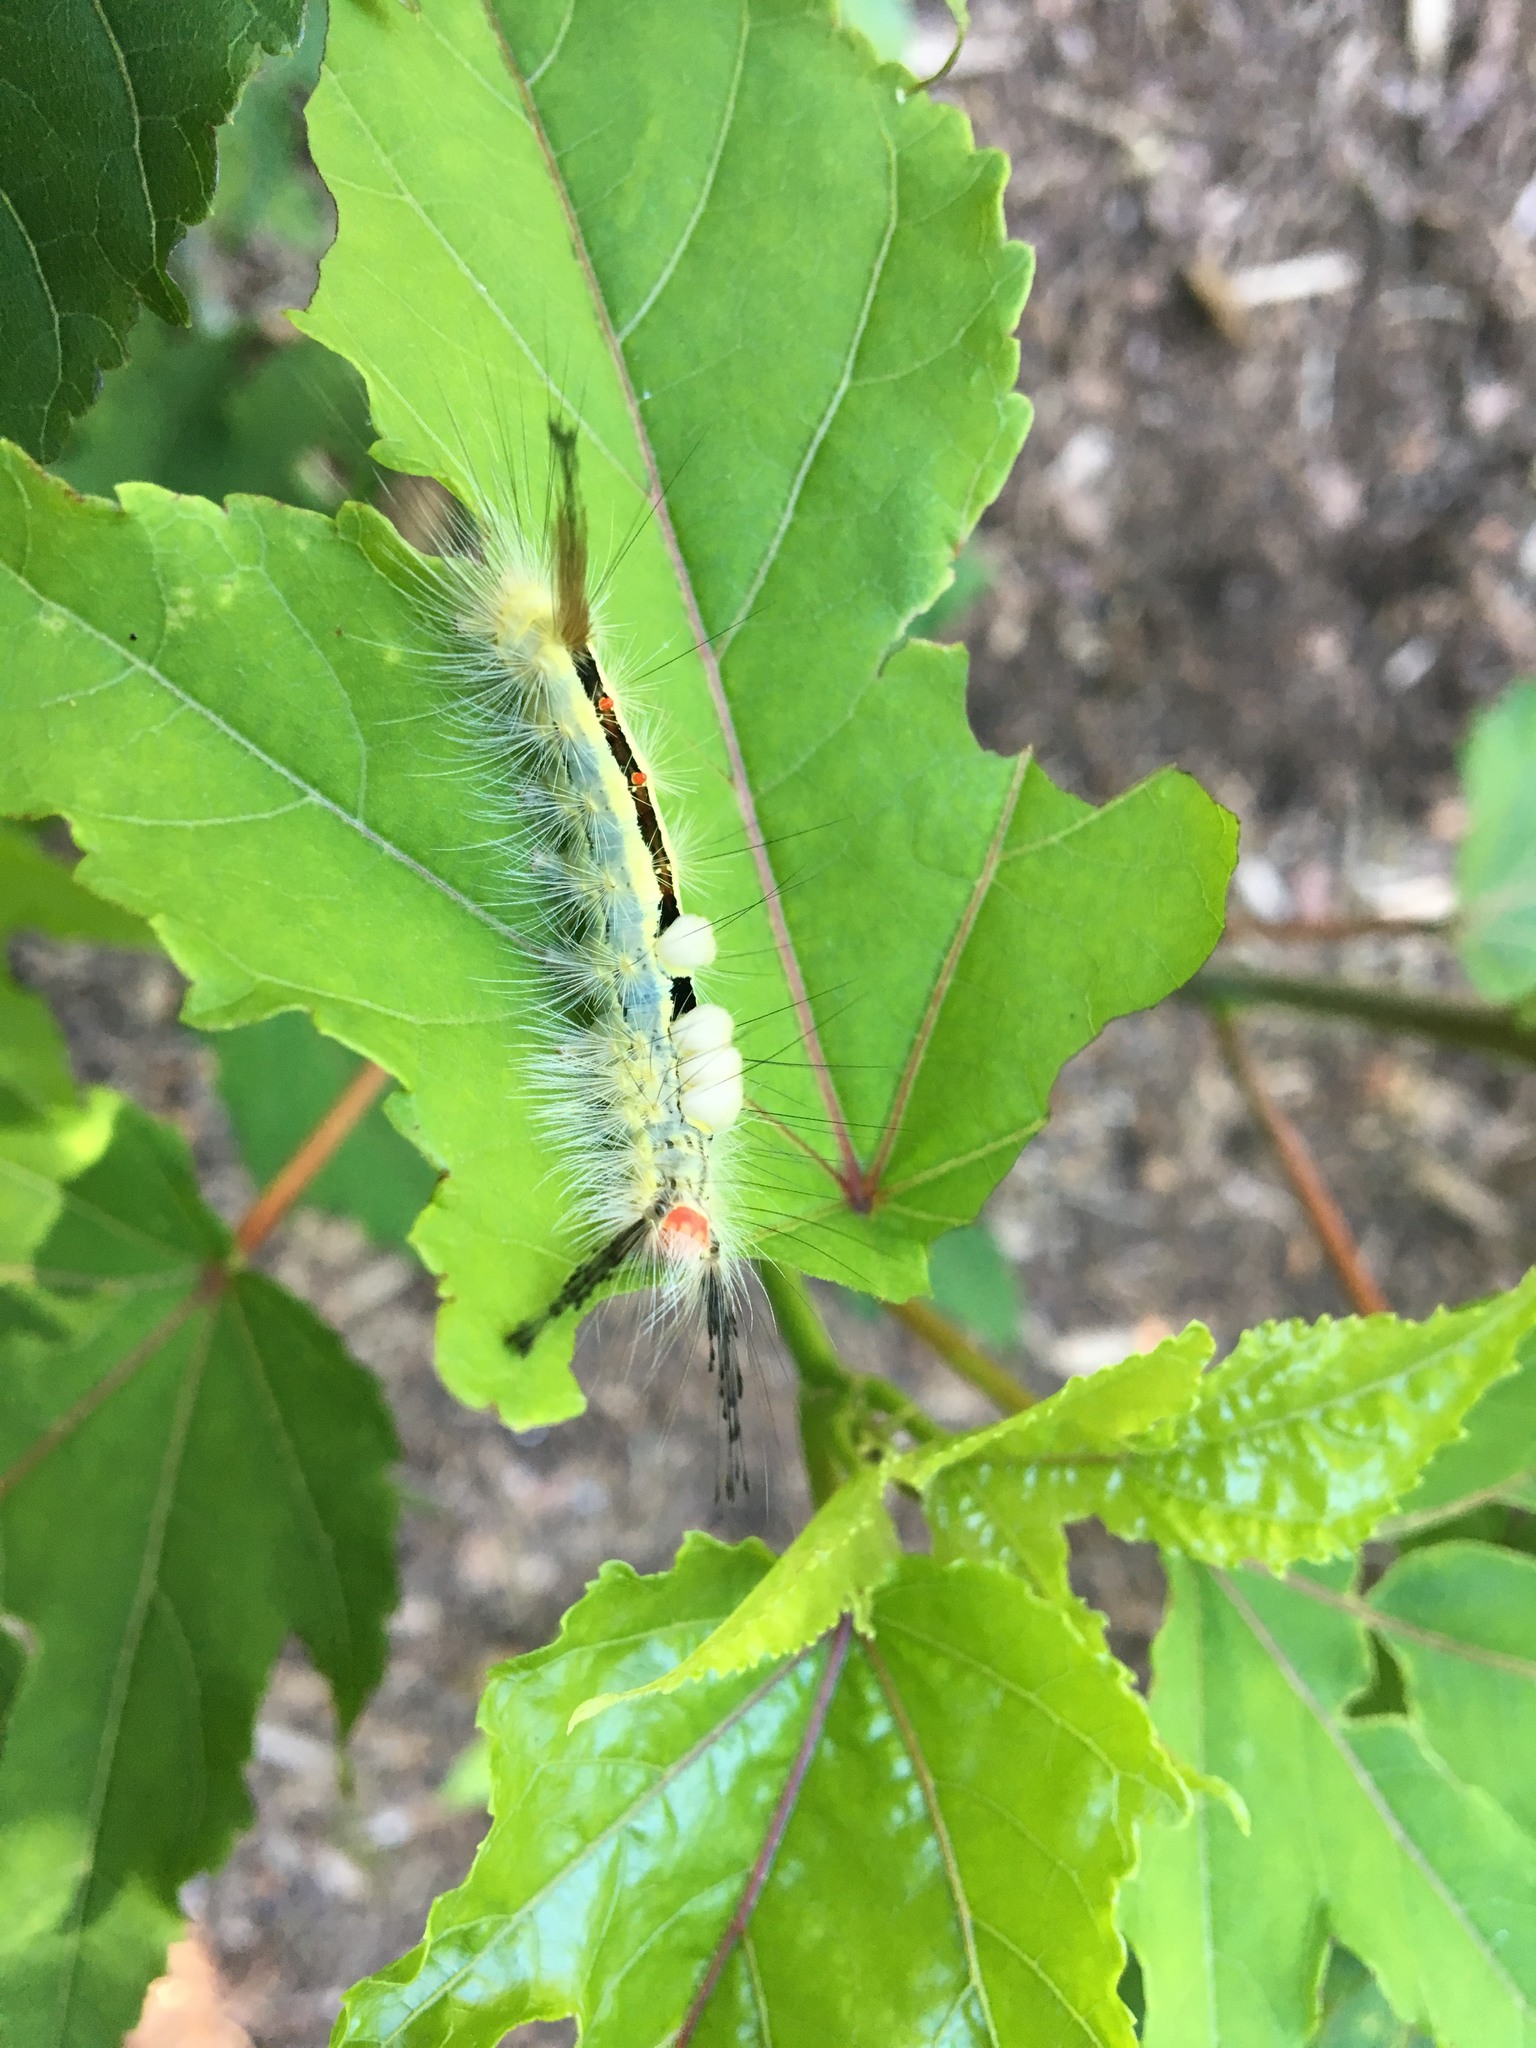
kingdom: Animalia
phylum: Arthropoda
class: Insecta
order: Lepidoptera
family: Erebidae
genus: Orgyia
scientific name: Orgyia leucostigma
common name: White-marked tussock moth
